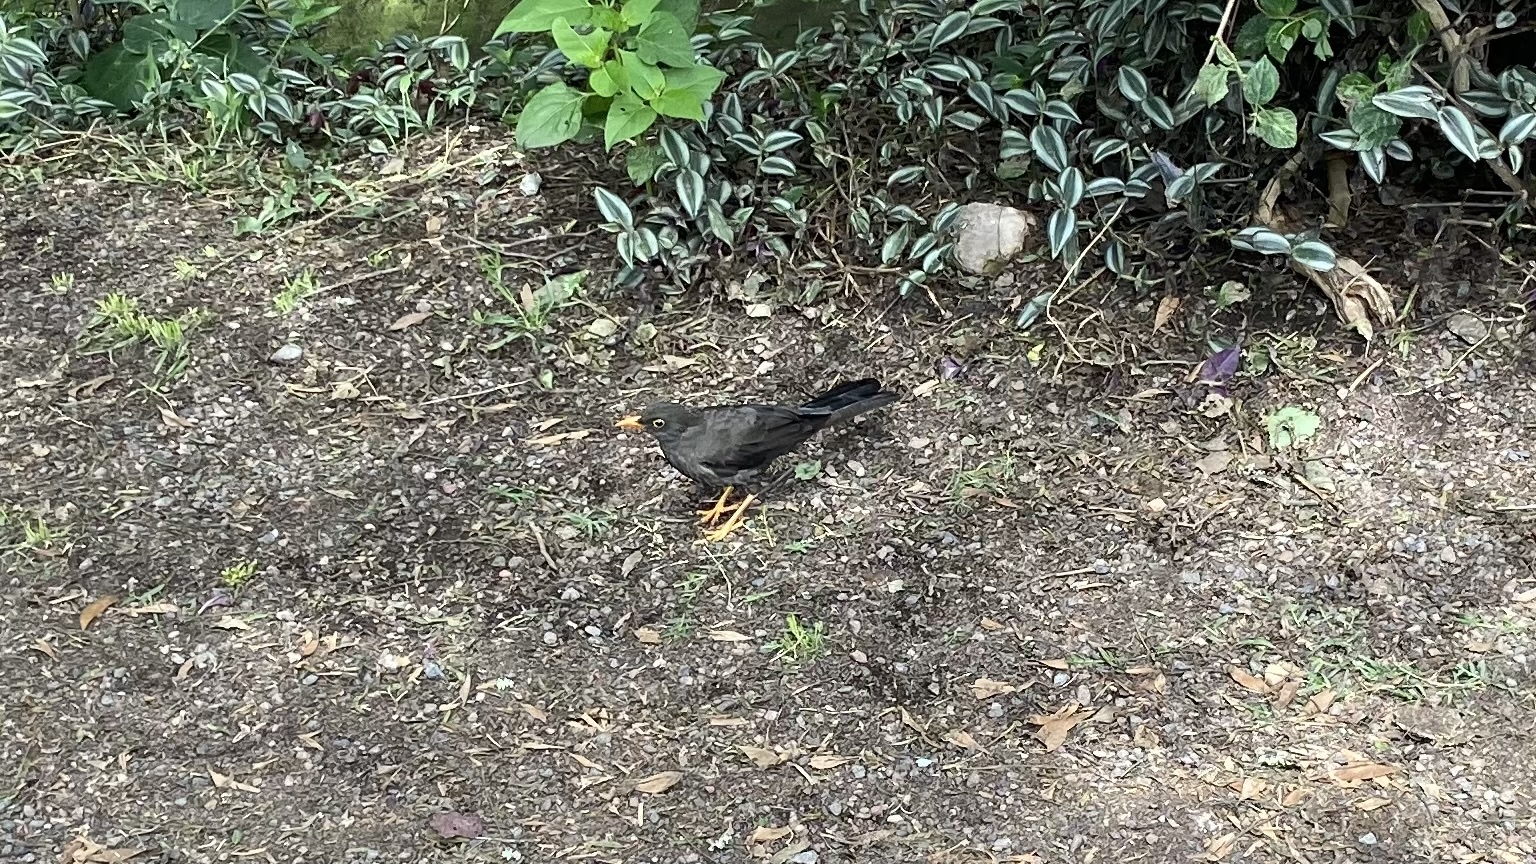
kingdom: Animalia
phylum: Chordata
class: Aves
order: Passeriformes
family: Turdidae
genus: Turdus
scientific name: Turdus fuscater
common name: Great thrush
